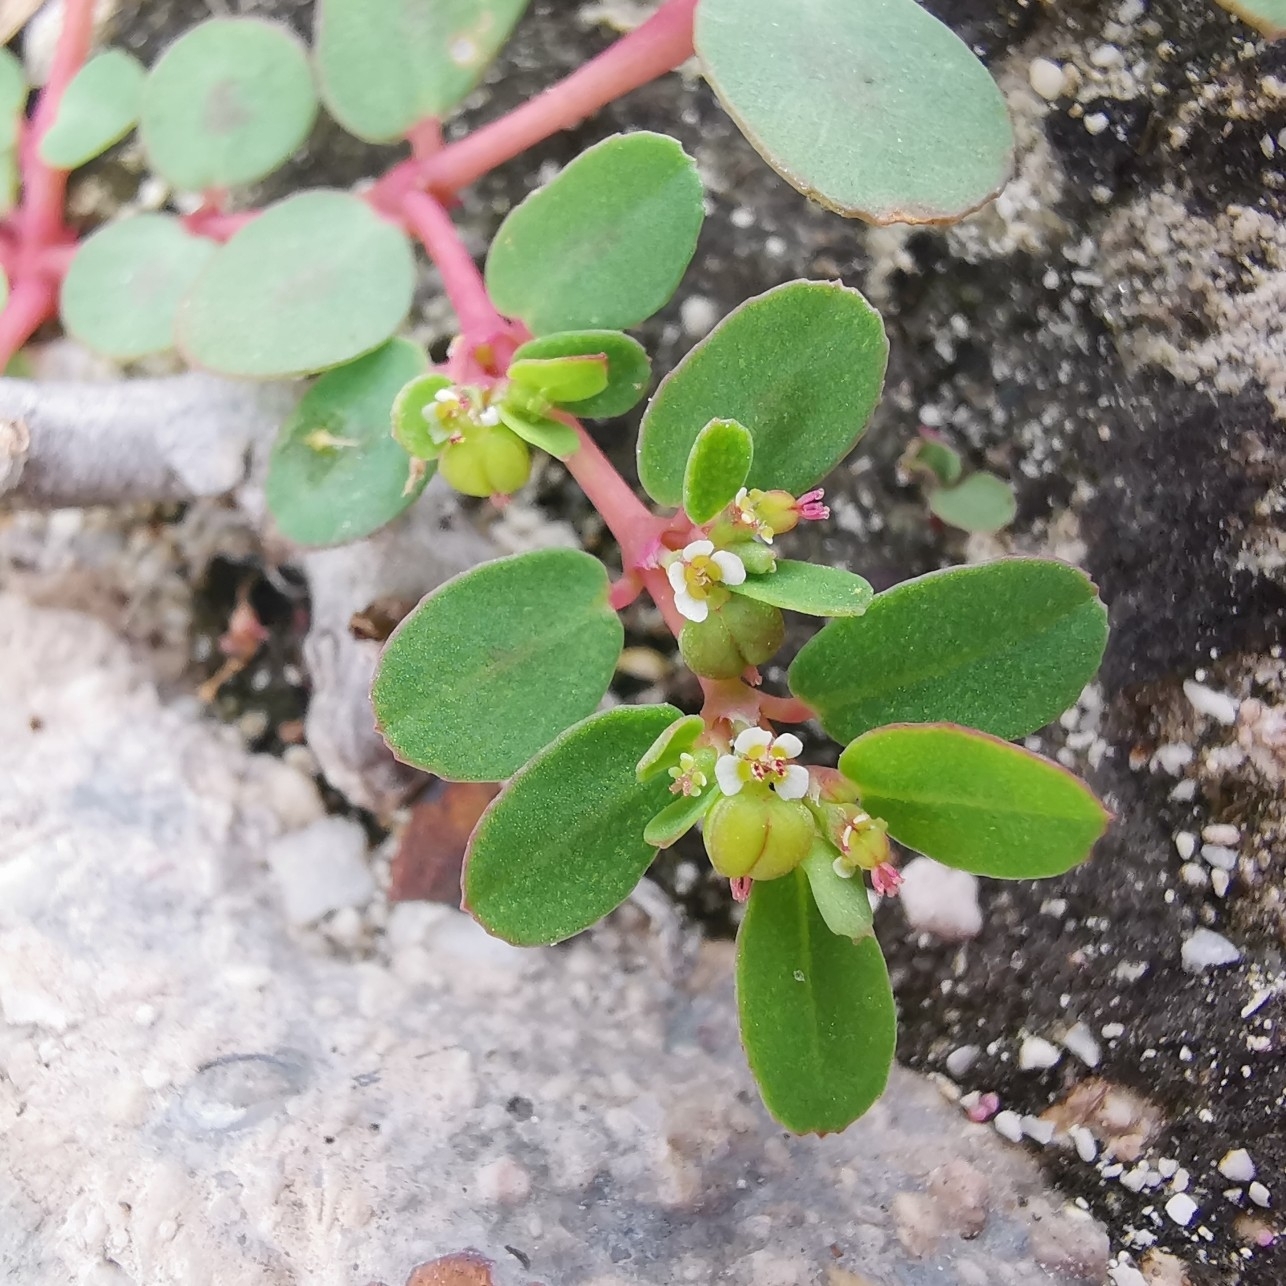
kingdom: Plantae
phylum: Tracheophyta
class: Magnoliopsida
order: Malpighiales
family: Euphorbiaceae
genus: Euphorbia
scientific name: Euphorbia blodgettii
